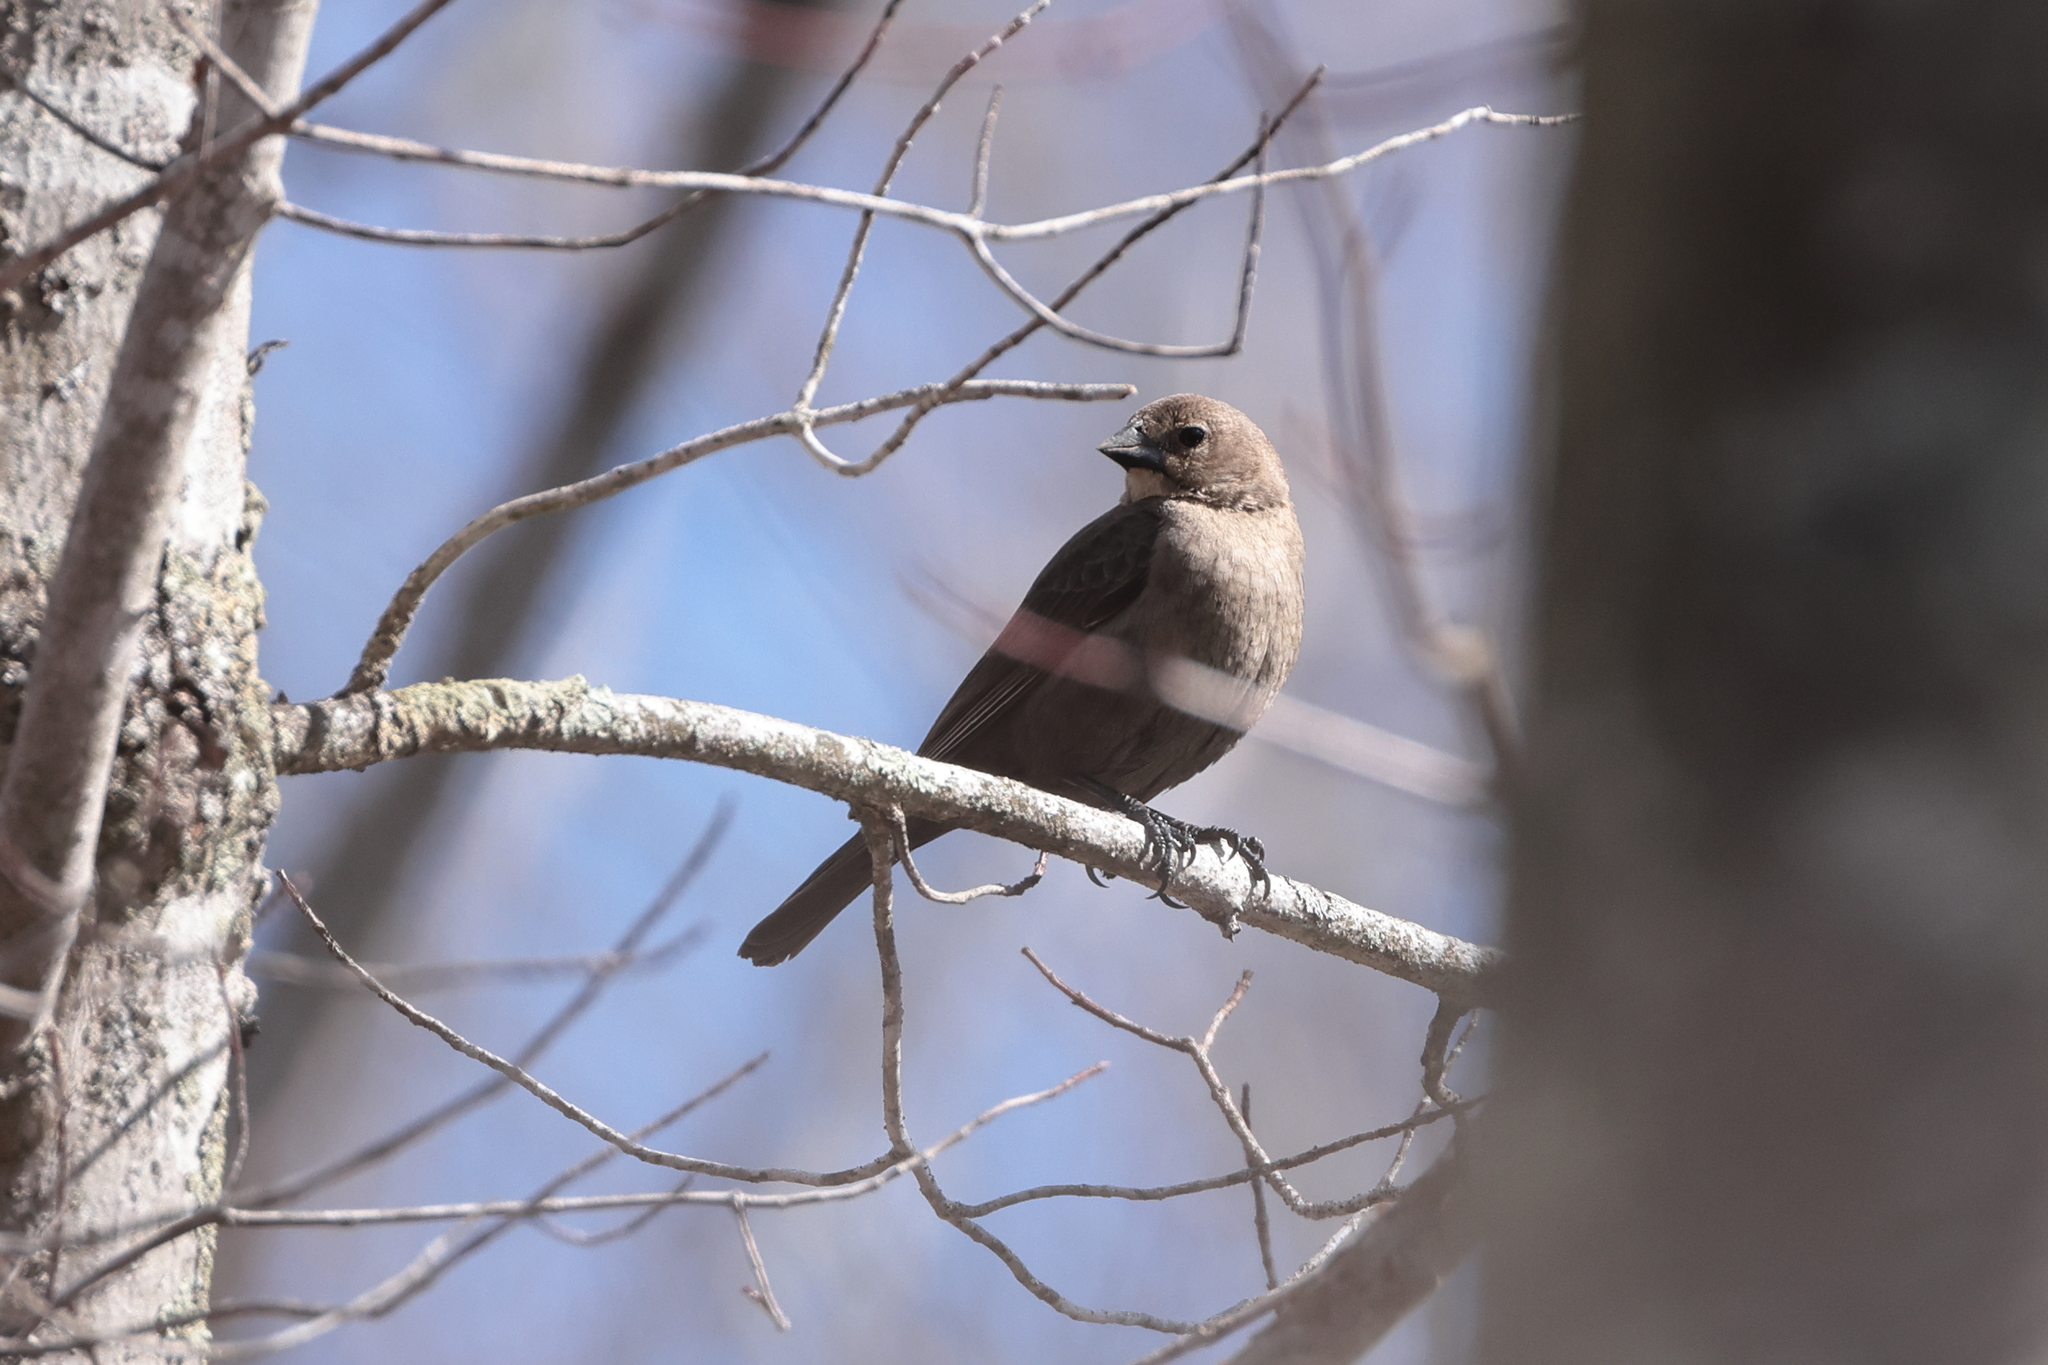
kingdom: Animalia
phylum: Chordata
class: Aves
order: Passeriformes
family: Icteridae
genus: Molothrus
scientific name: Molothrus ater
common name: Brown-headed cowbird
